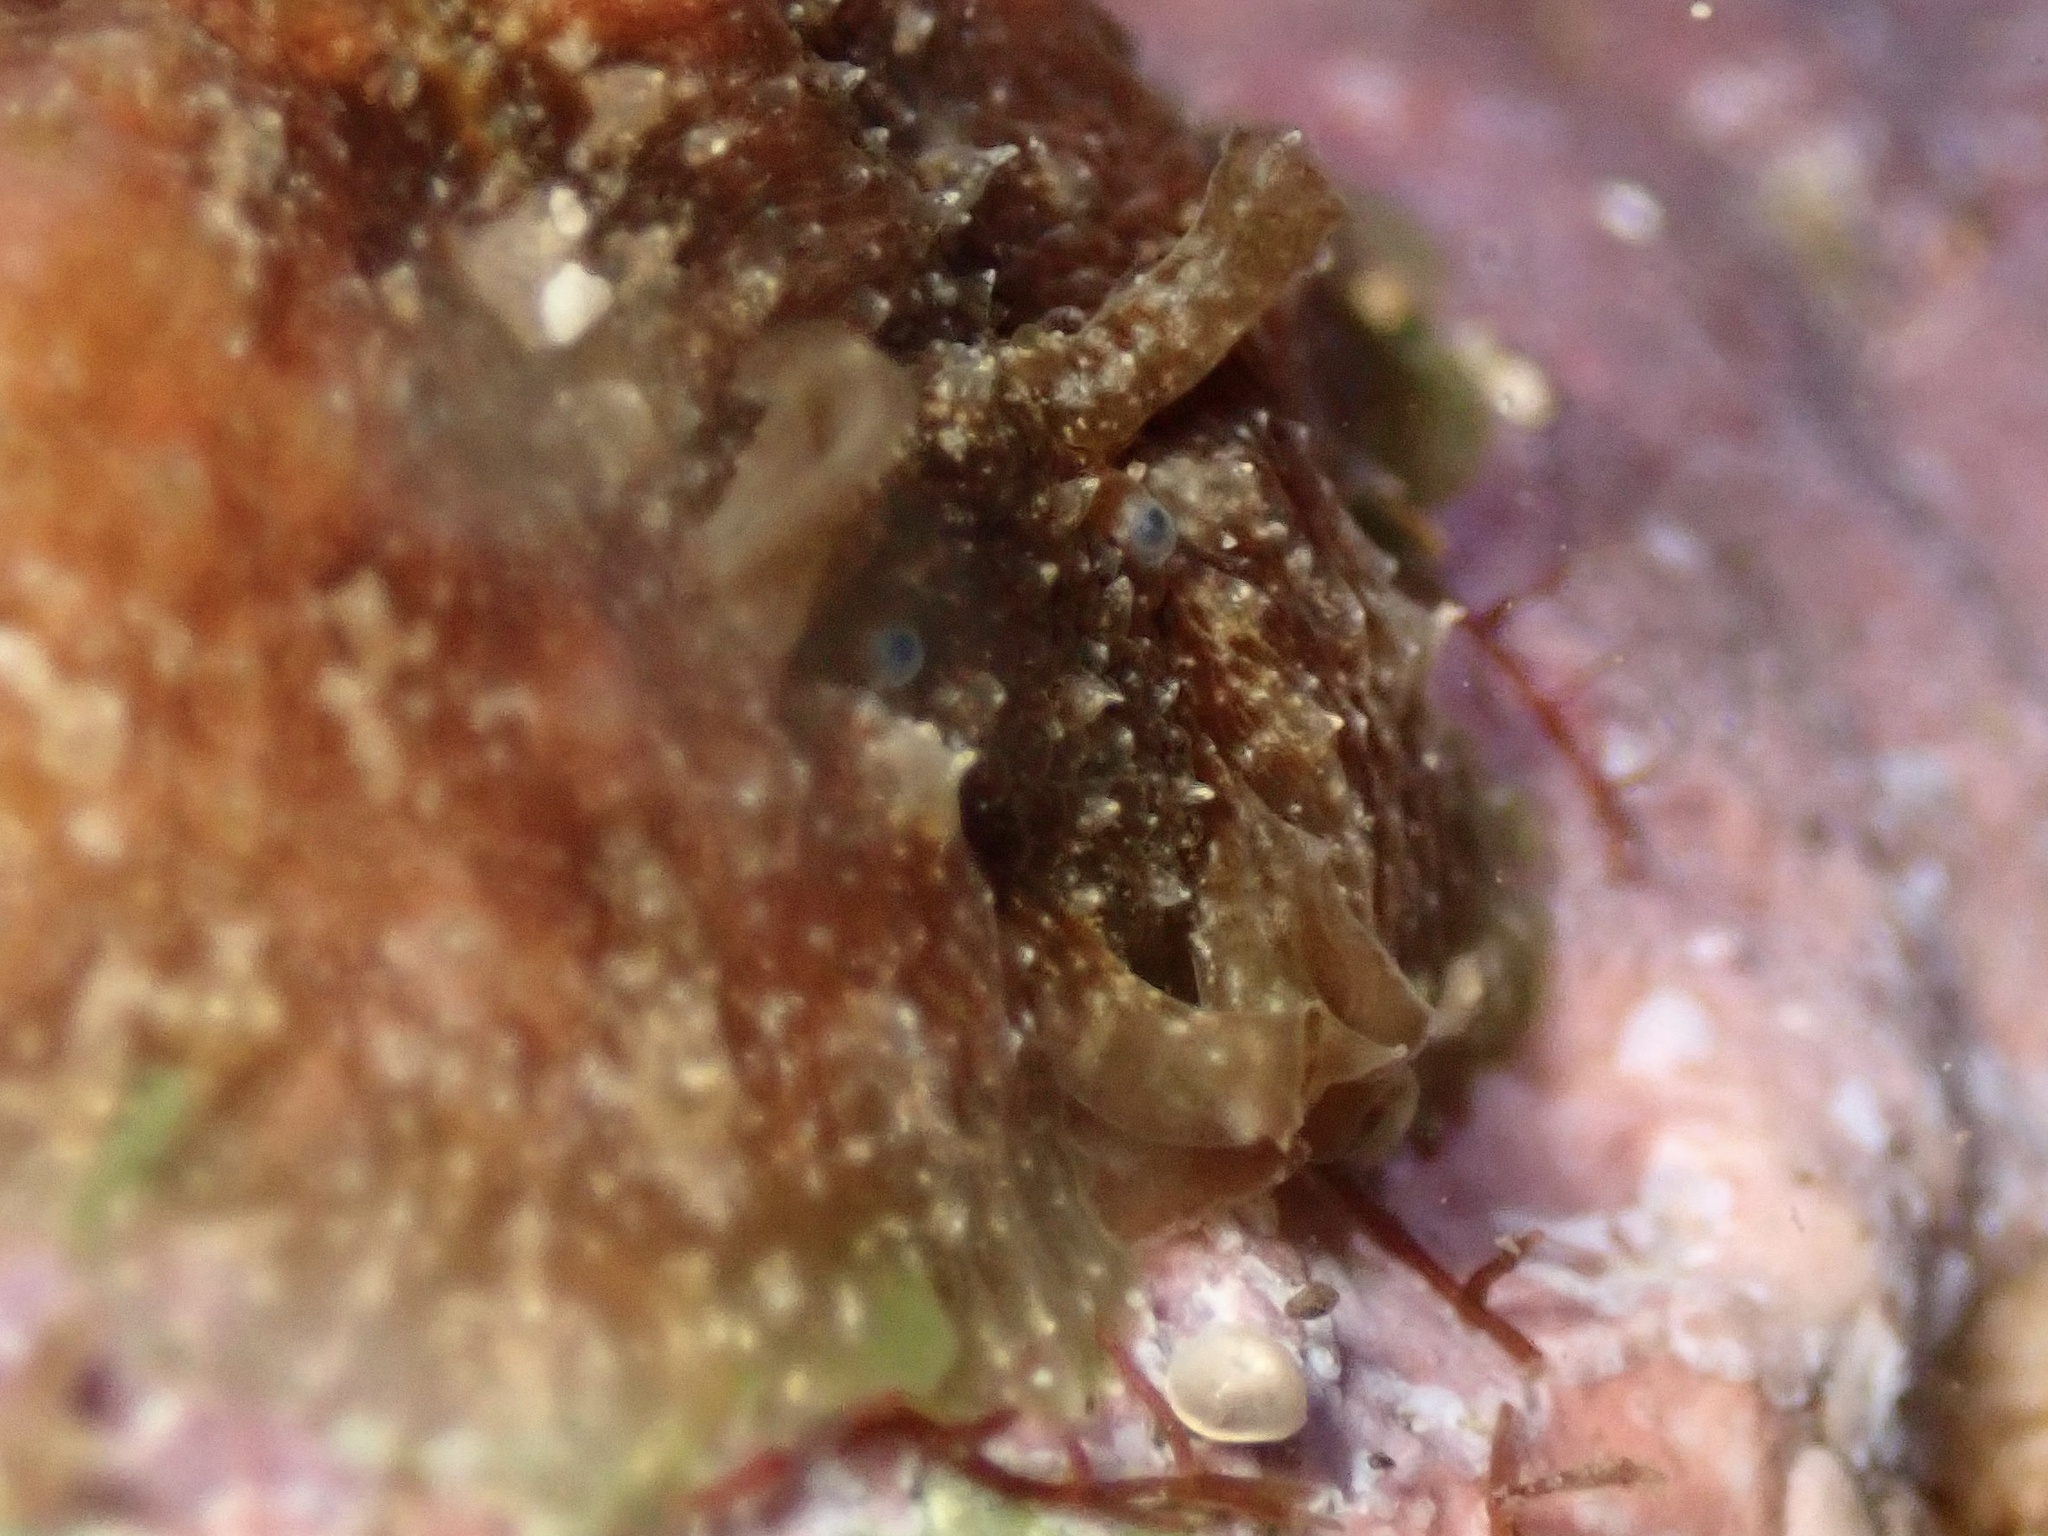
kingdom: Animalia
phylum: Mollusca
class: Gastropoda
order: Aplysiida
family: Aplysiidae
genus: Dolabrifera
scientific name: Dolabrifera dolabrifera
